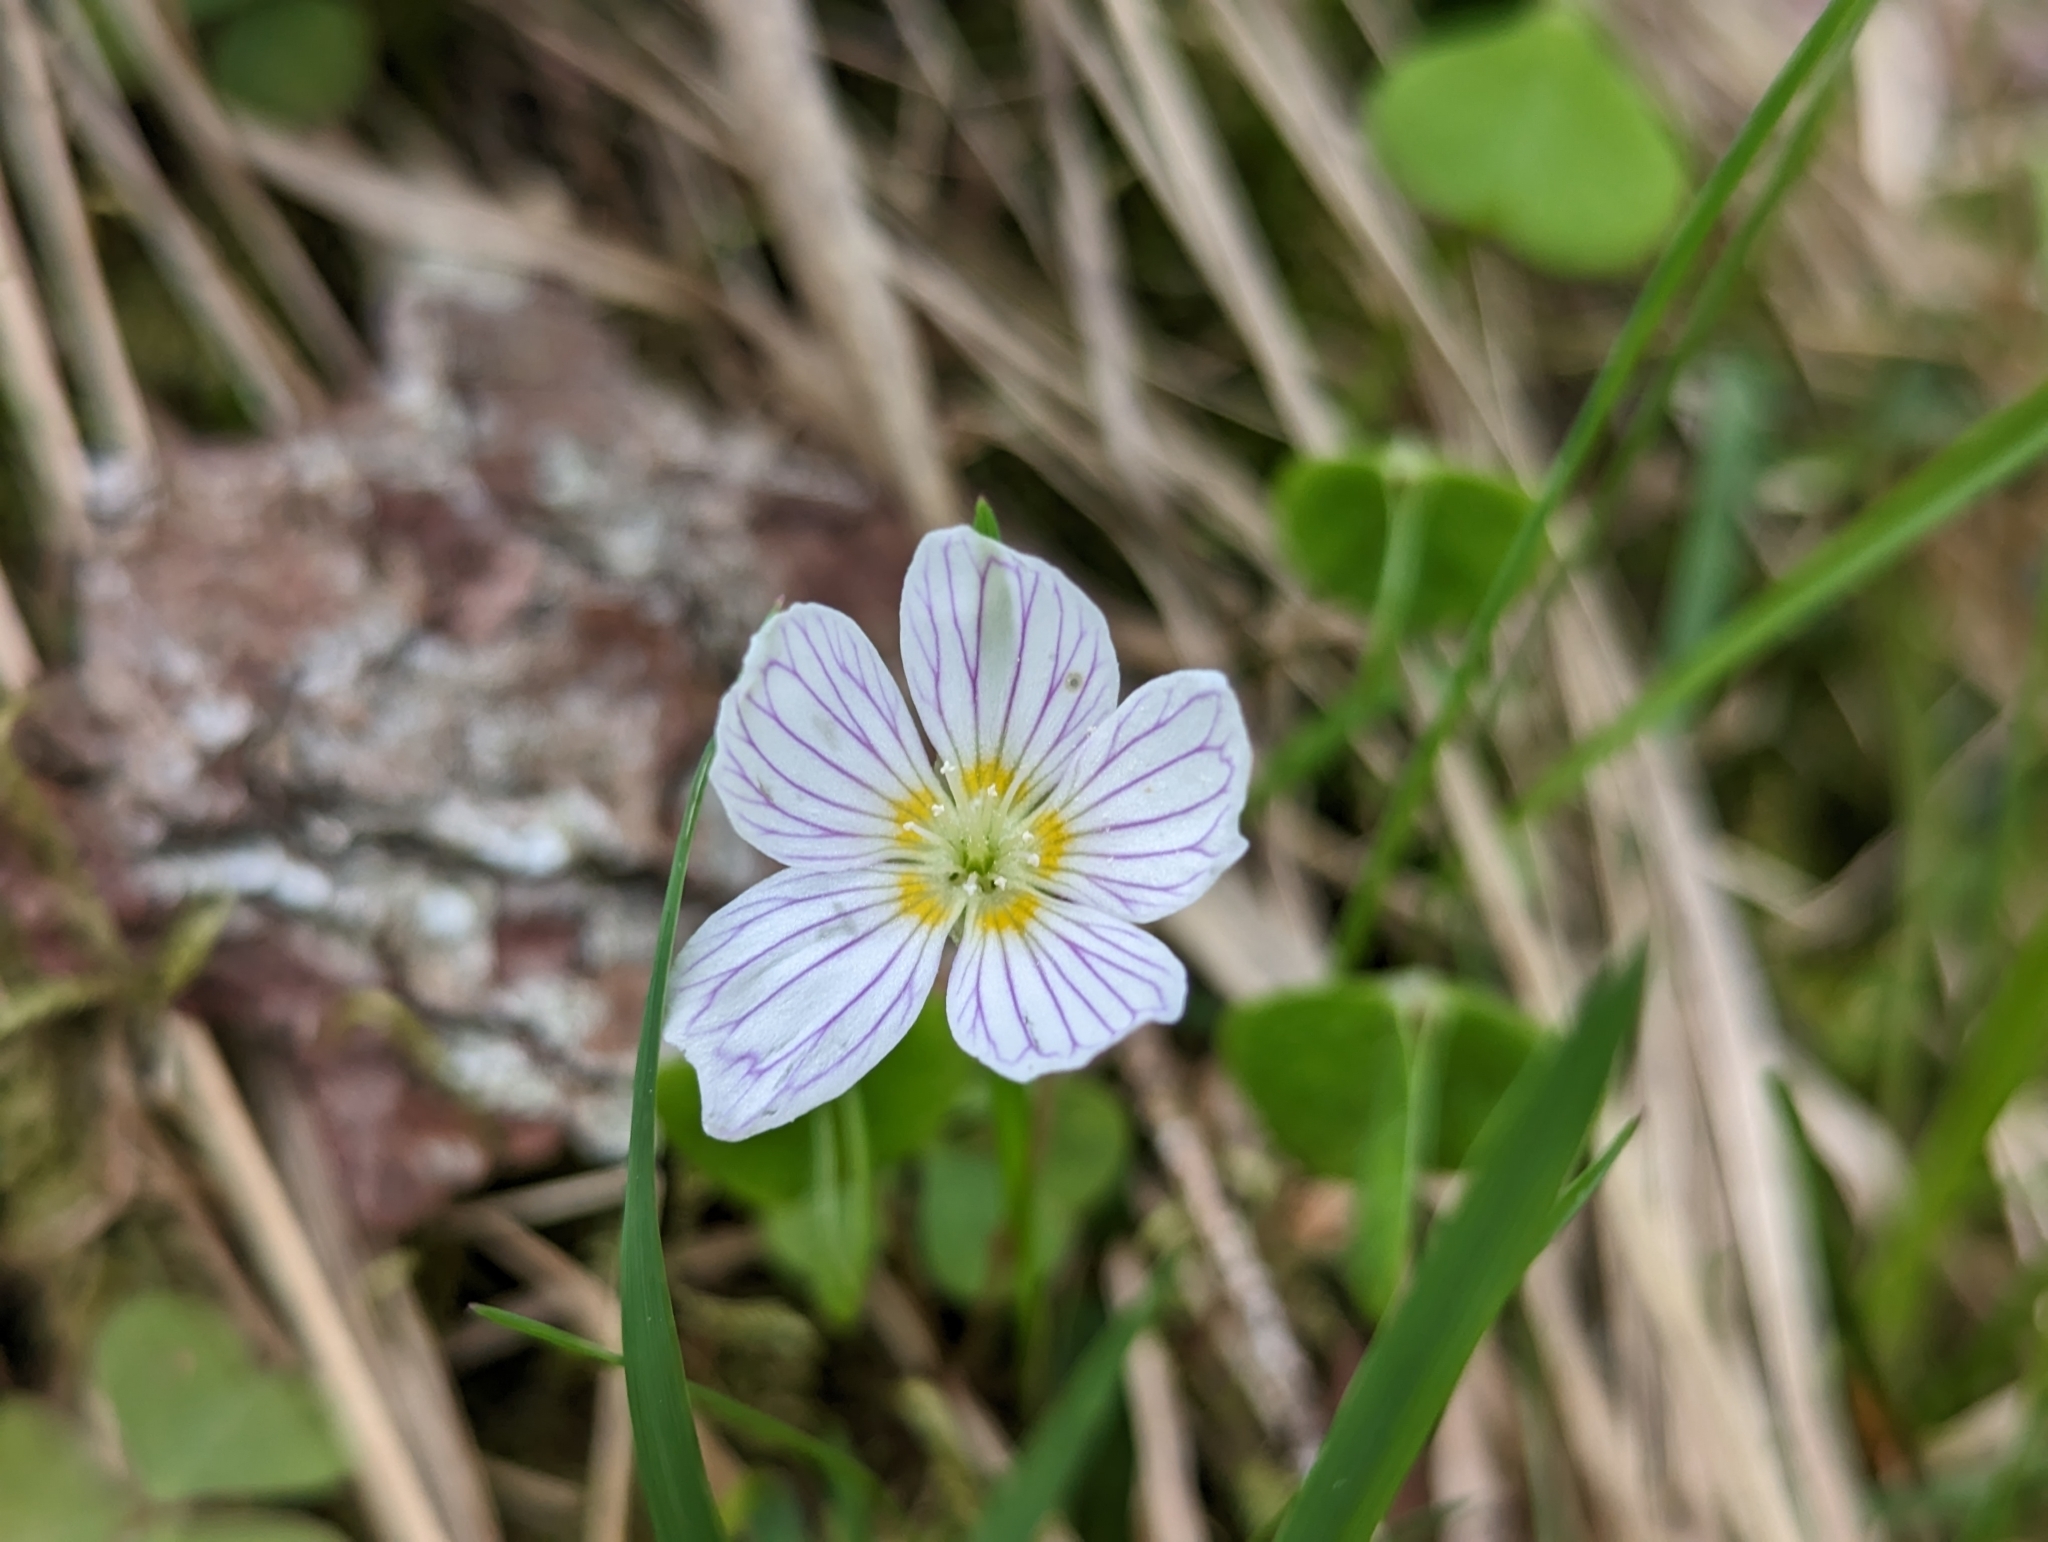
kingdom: Plantae
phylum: Tracheophyta
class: Magnoliopsida
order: Oxalidales
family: Oxalidaceae
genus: Oxalis
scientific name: Oxalis acetosella
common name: Wood-sorrel
